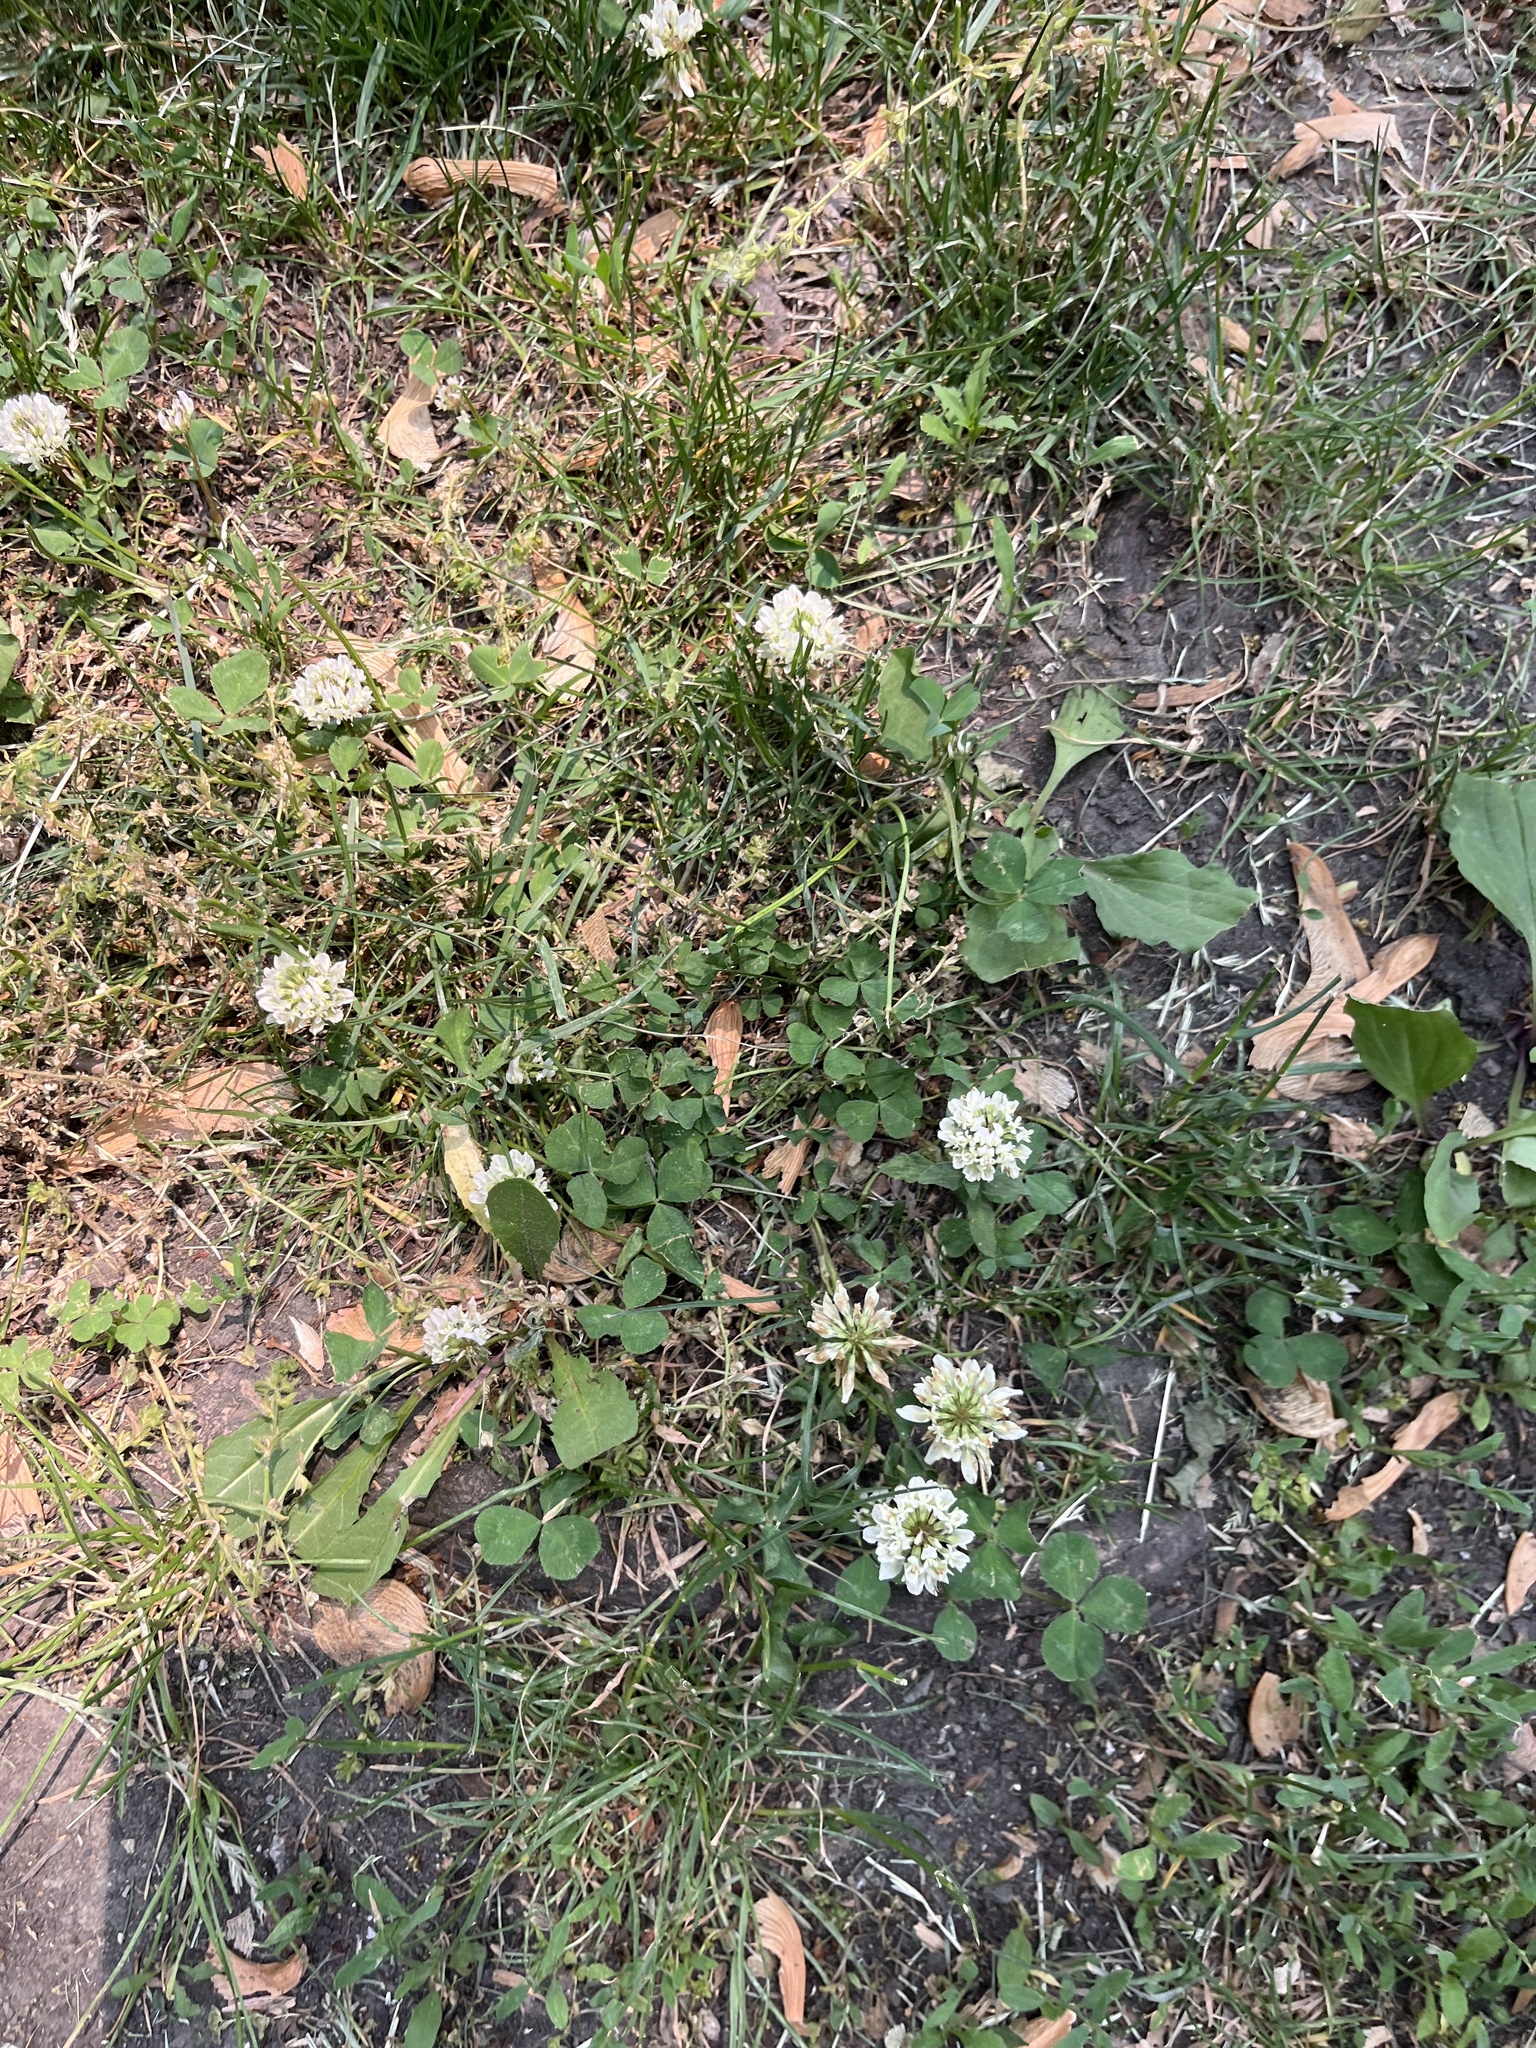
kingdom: Plantae
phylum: Tracheophyta
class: Magnoliopsida
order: Fabales
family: Fabaceae
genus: Trifolium
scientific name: Trifolium repens
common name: White clover
